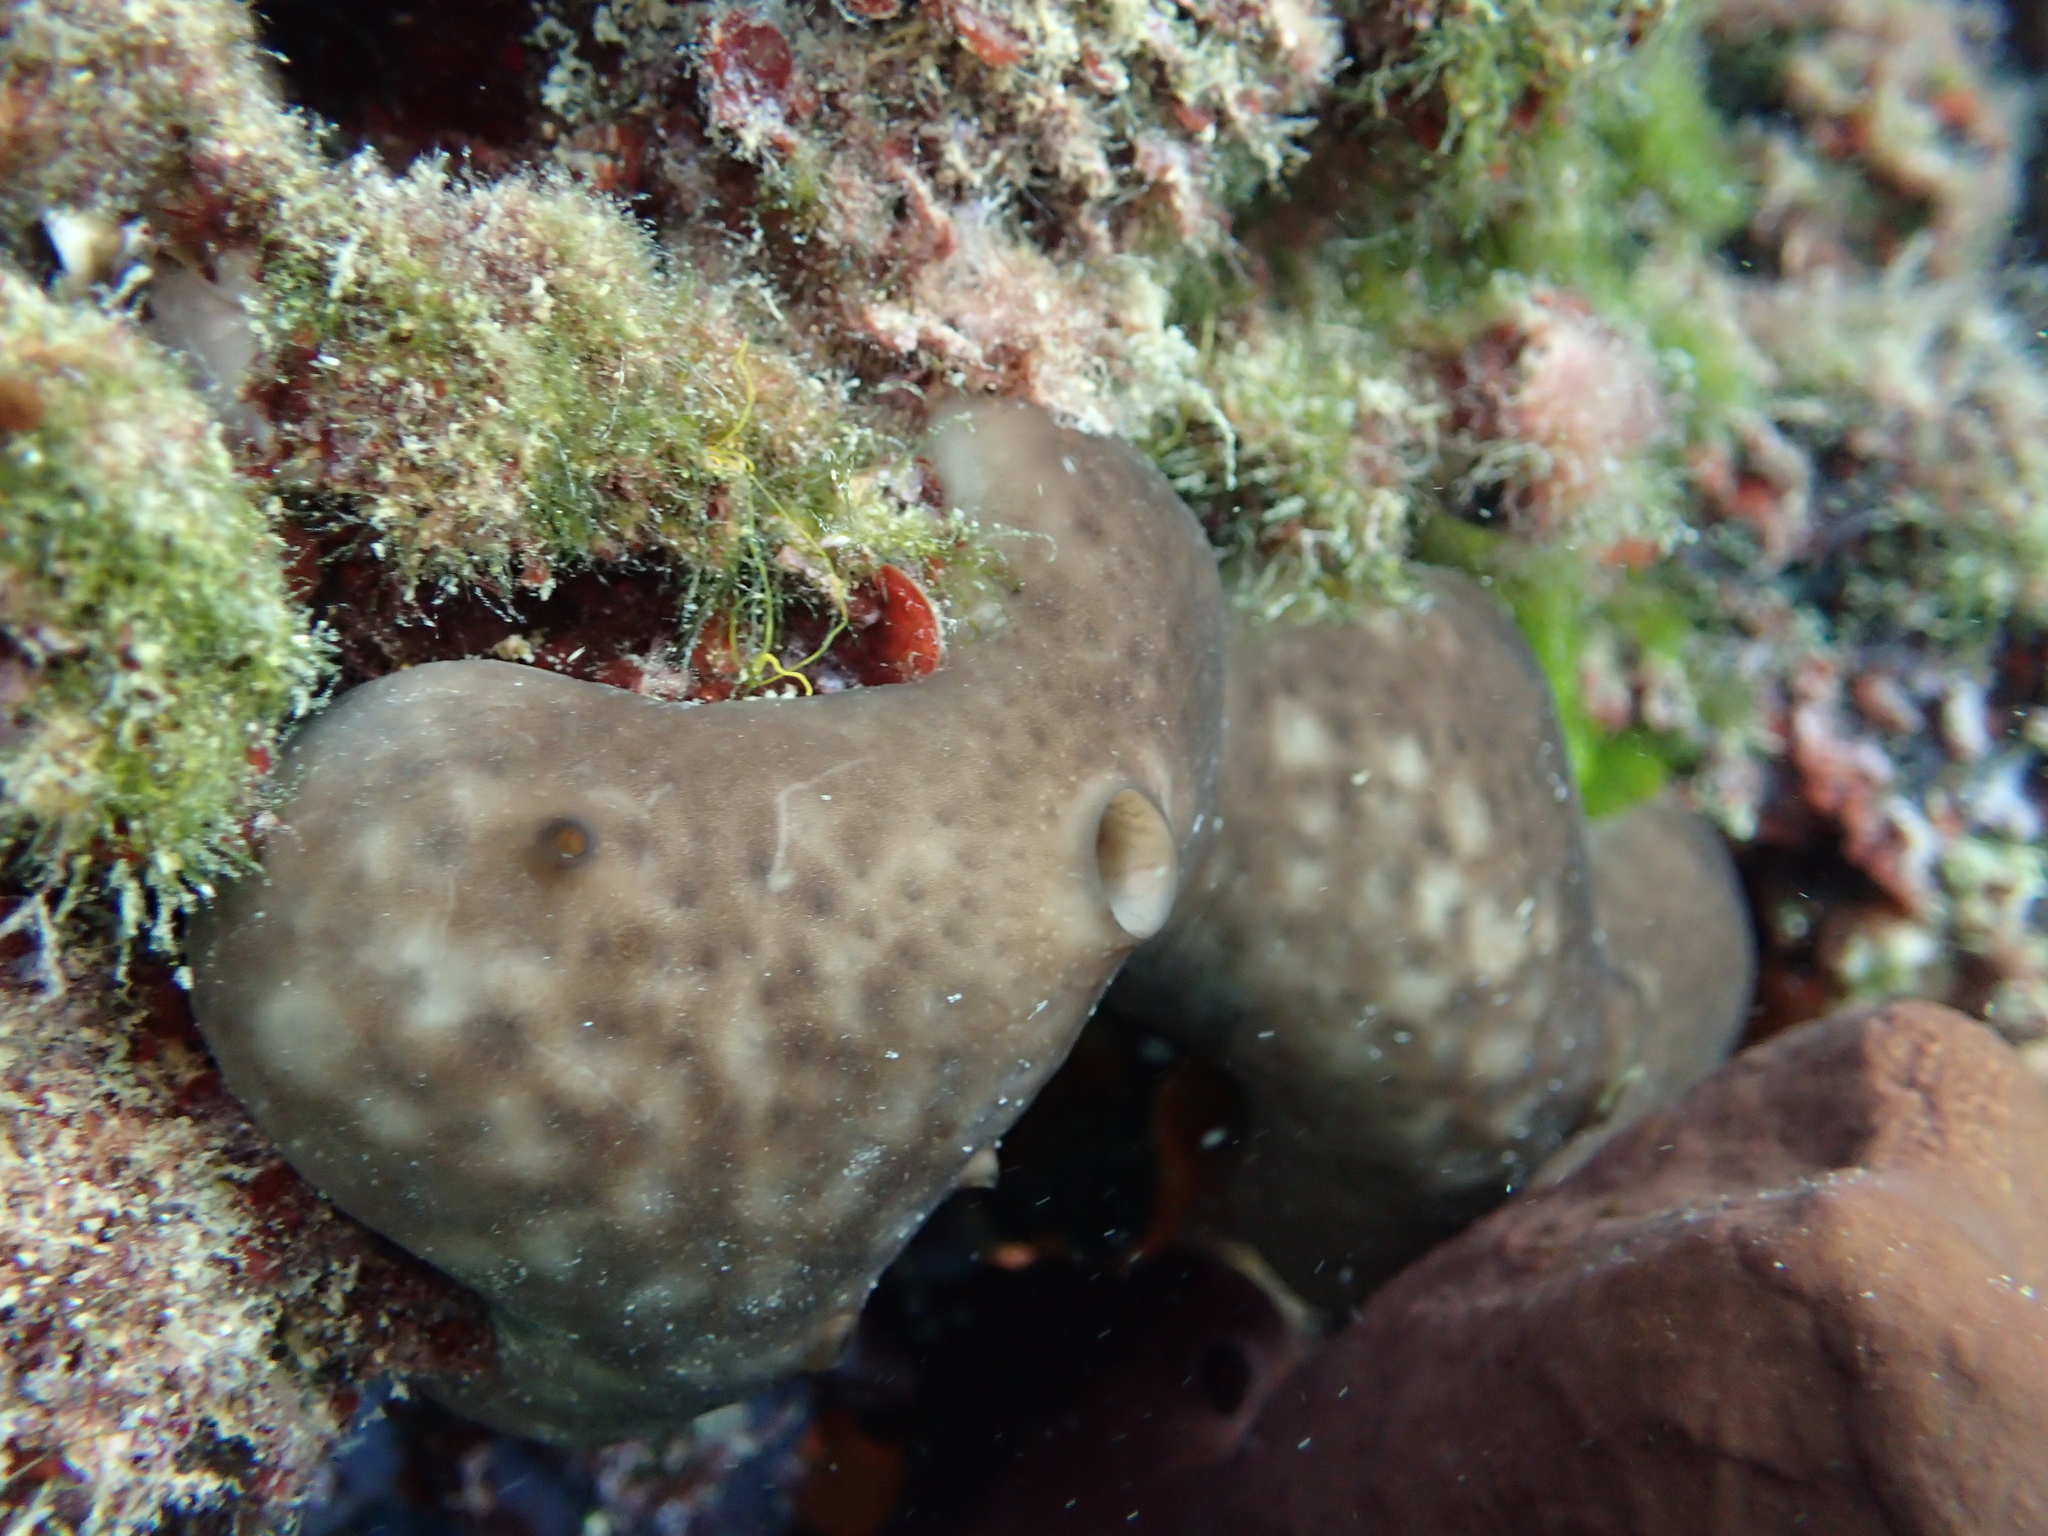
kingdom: Animalia
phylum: Porifera
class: Demospongiae
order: Chondrosiida
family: Chondrosiidae
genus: Chondrosia
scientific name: Chondrosia reniformis
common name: Chicken liver sponge
